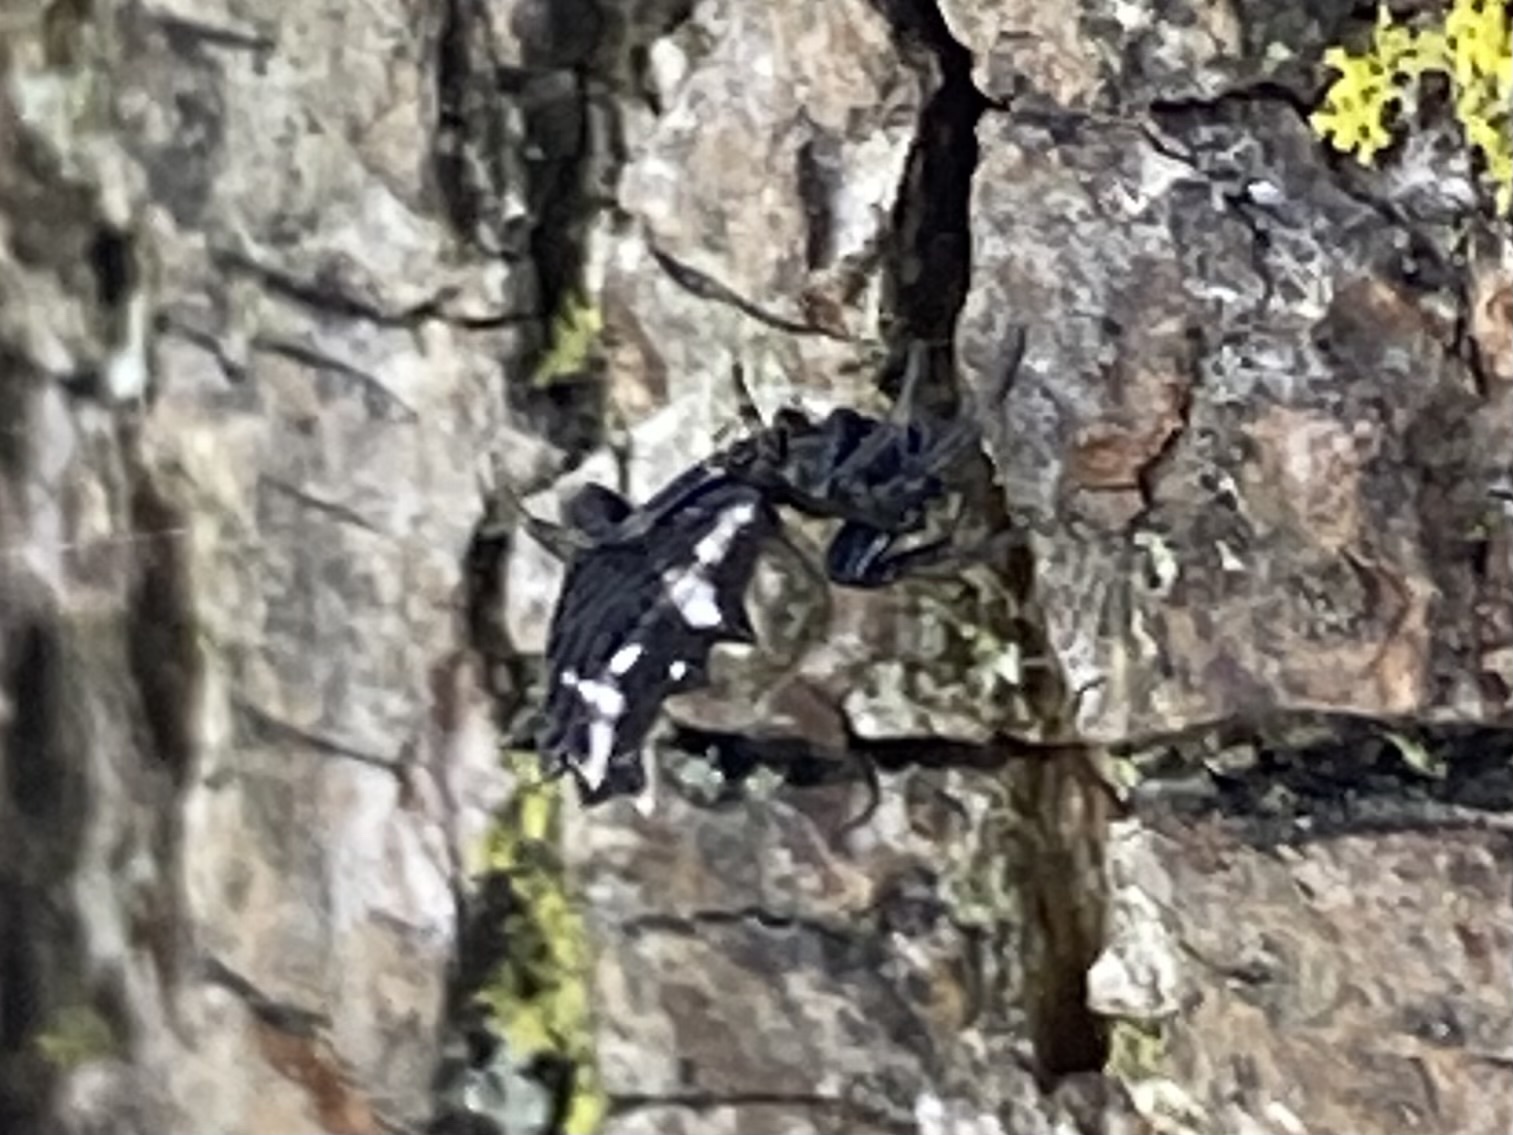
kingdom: Animalia
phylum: Arthropoda
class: Arachnida
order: Araneae
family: Araneidae
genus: Micrathena
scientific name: Micrathena gracilis
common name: Orb weavers
